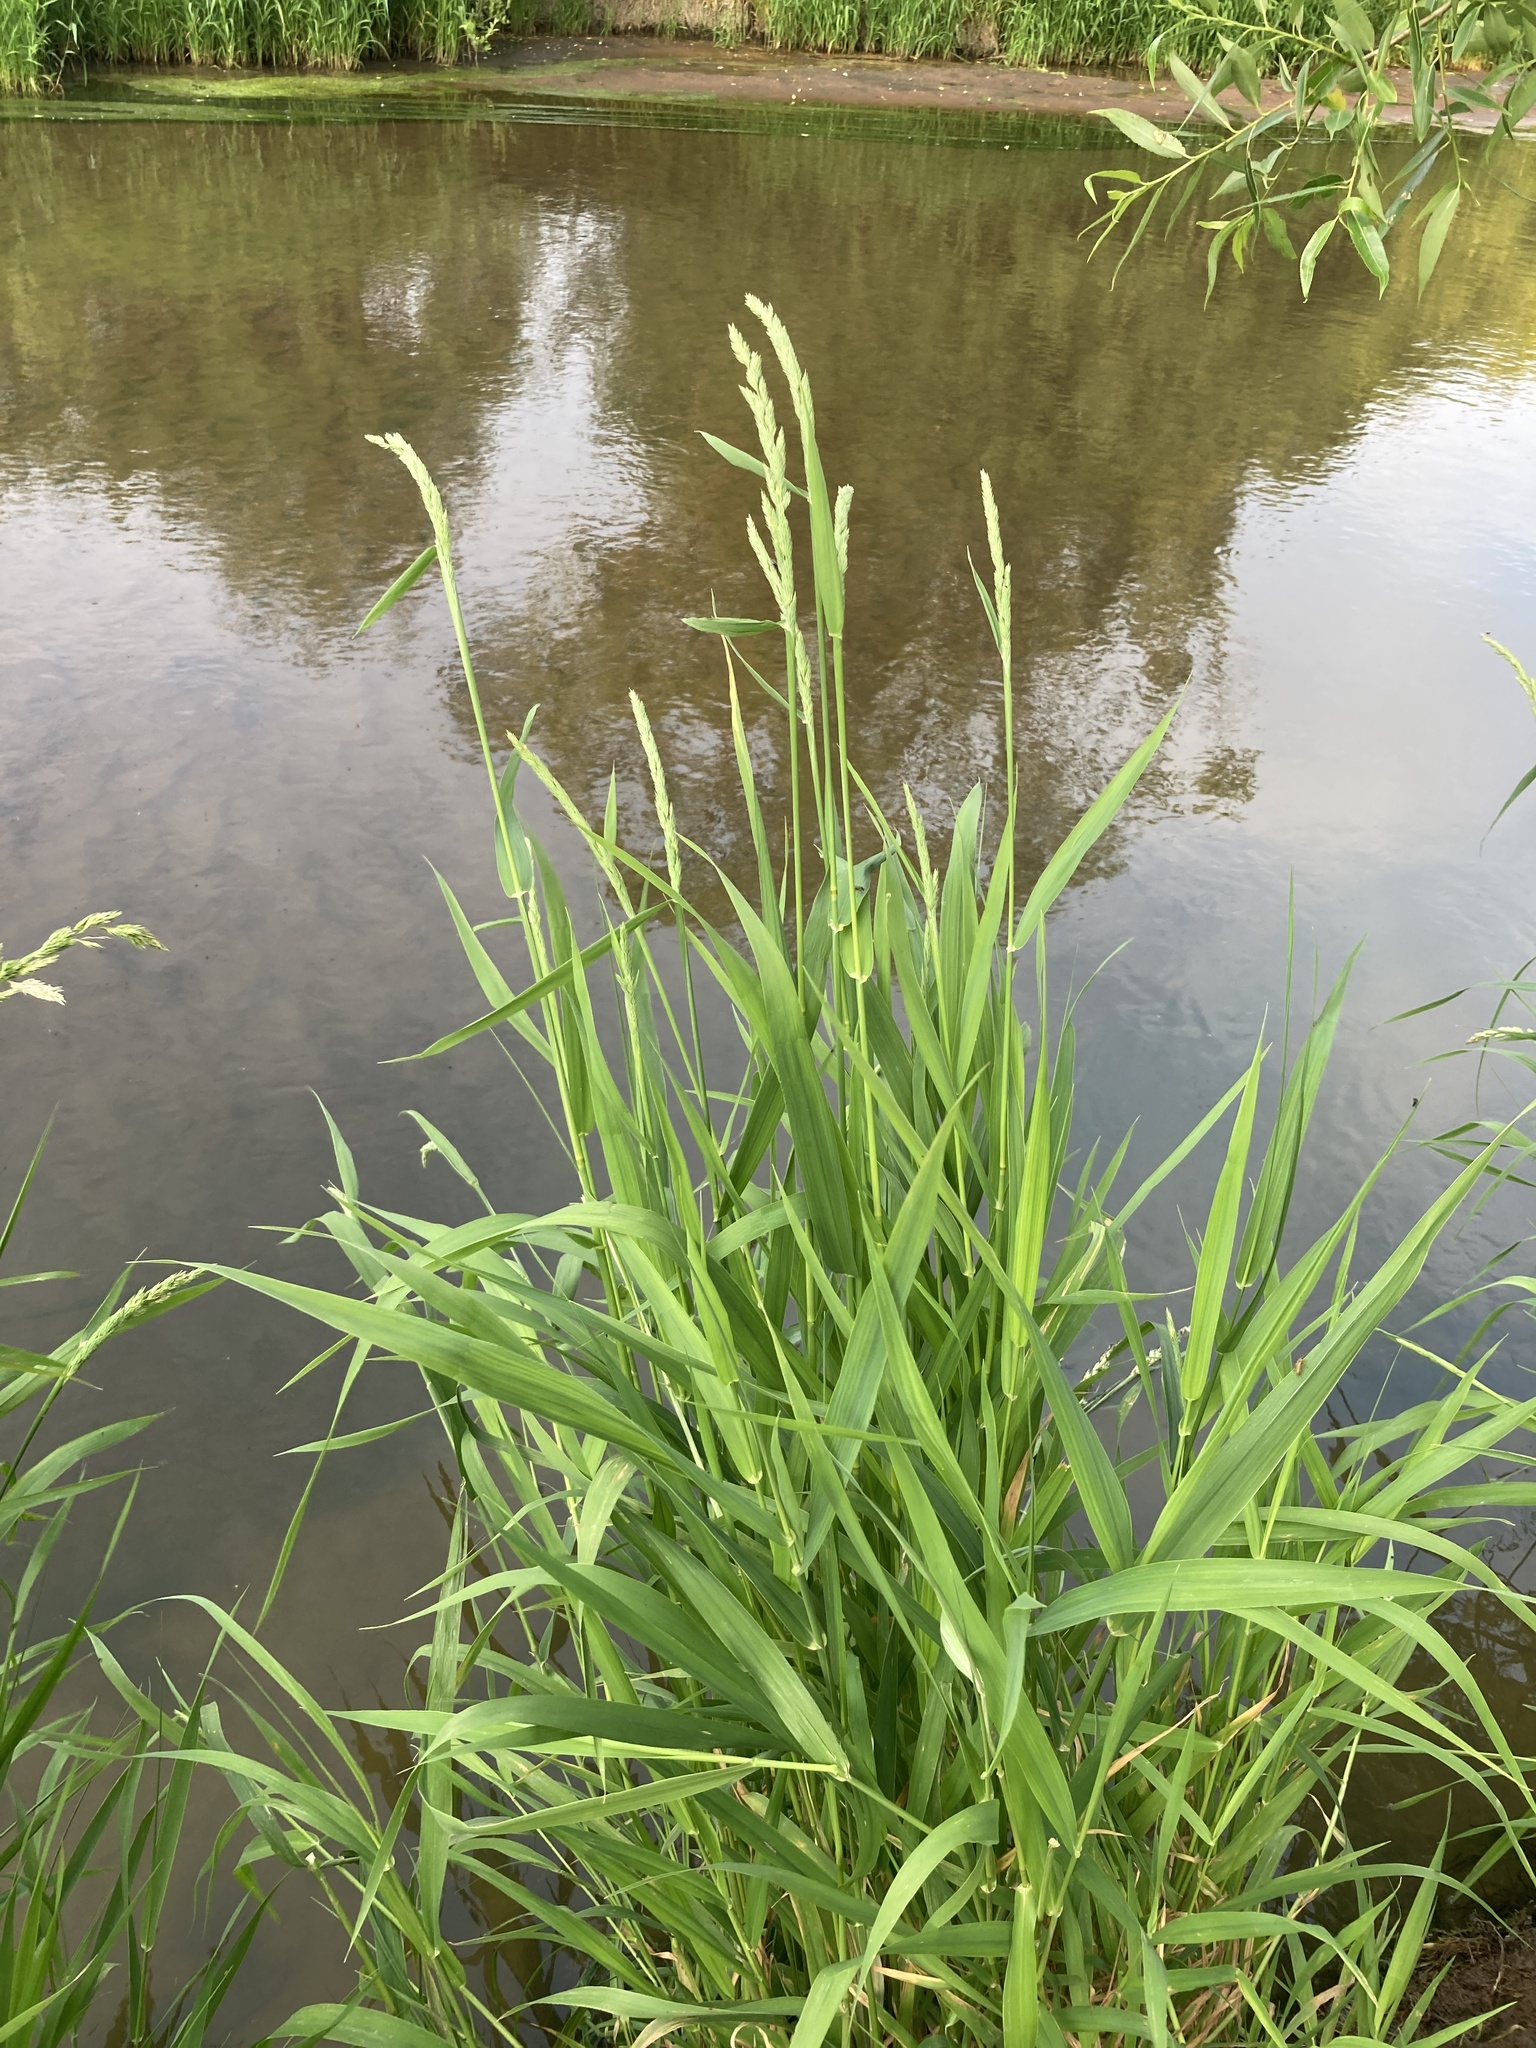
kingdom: Plantae
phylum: Tracheophyta
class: Liliopsida
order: Poales
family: Poaceae
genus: Phalaris
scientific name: Phalaris arundinacea
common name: Reed canary-grass
